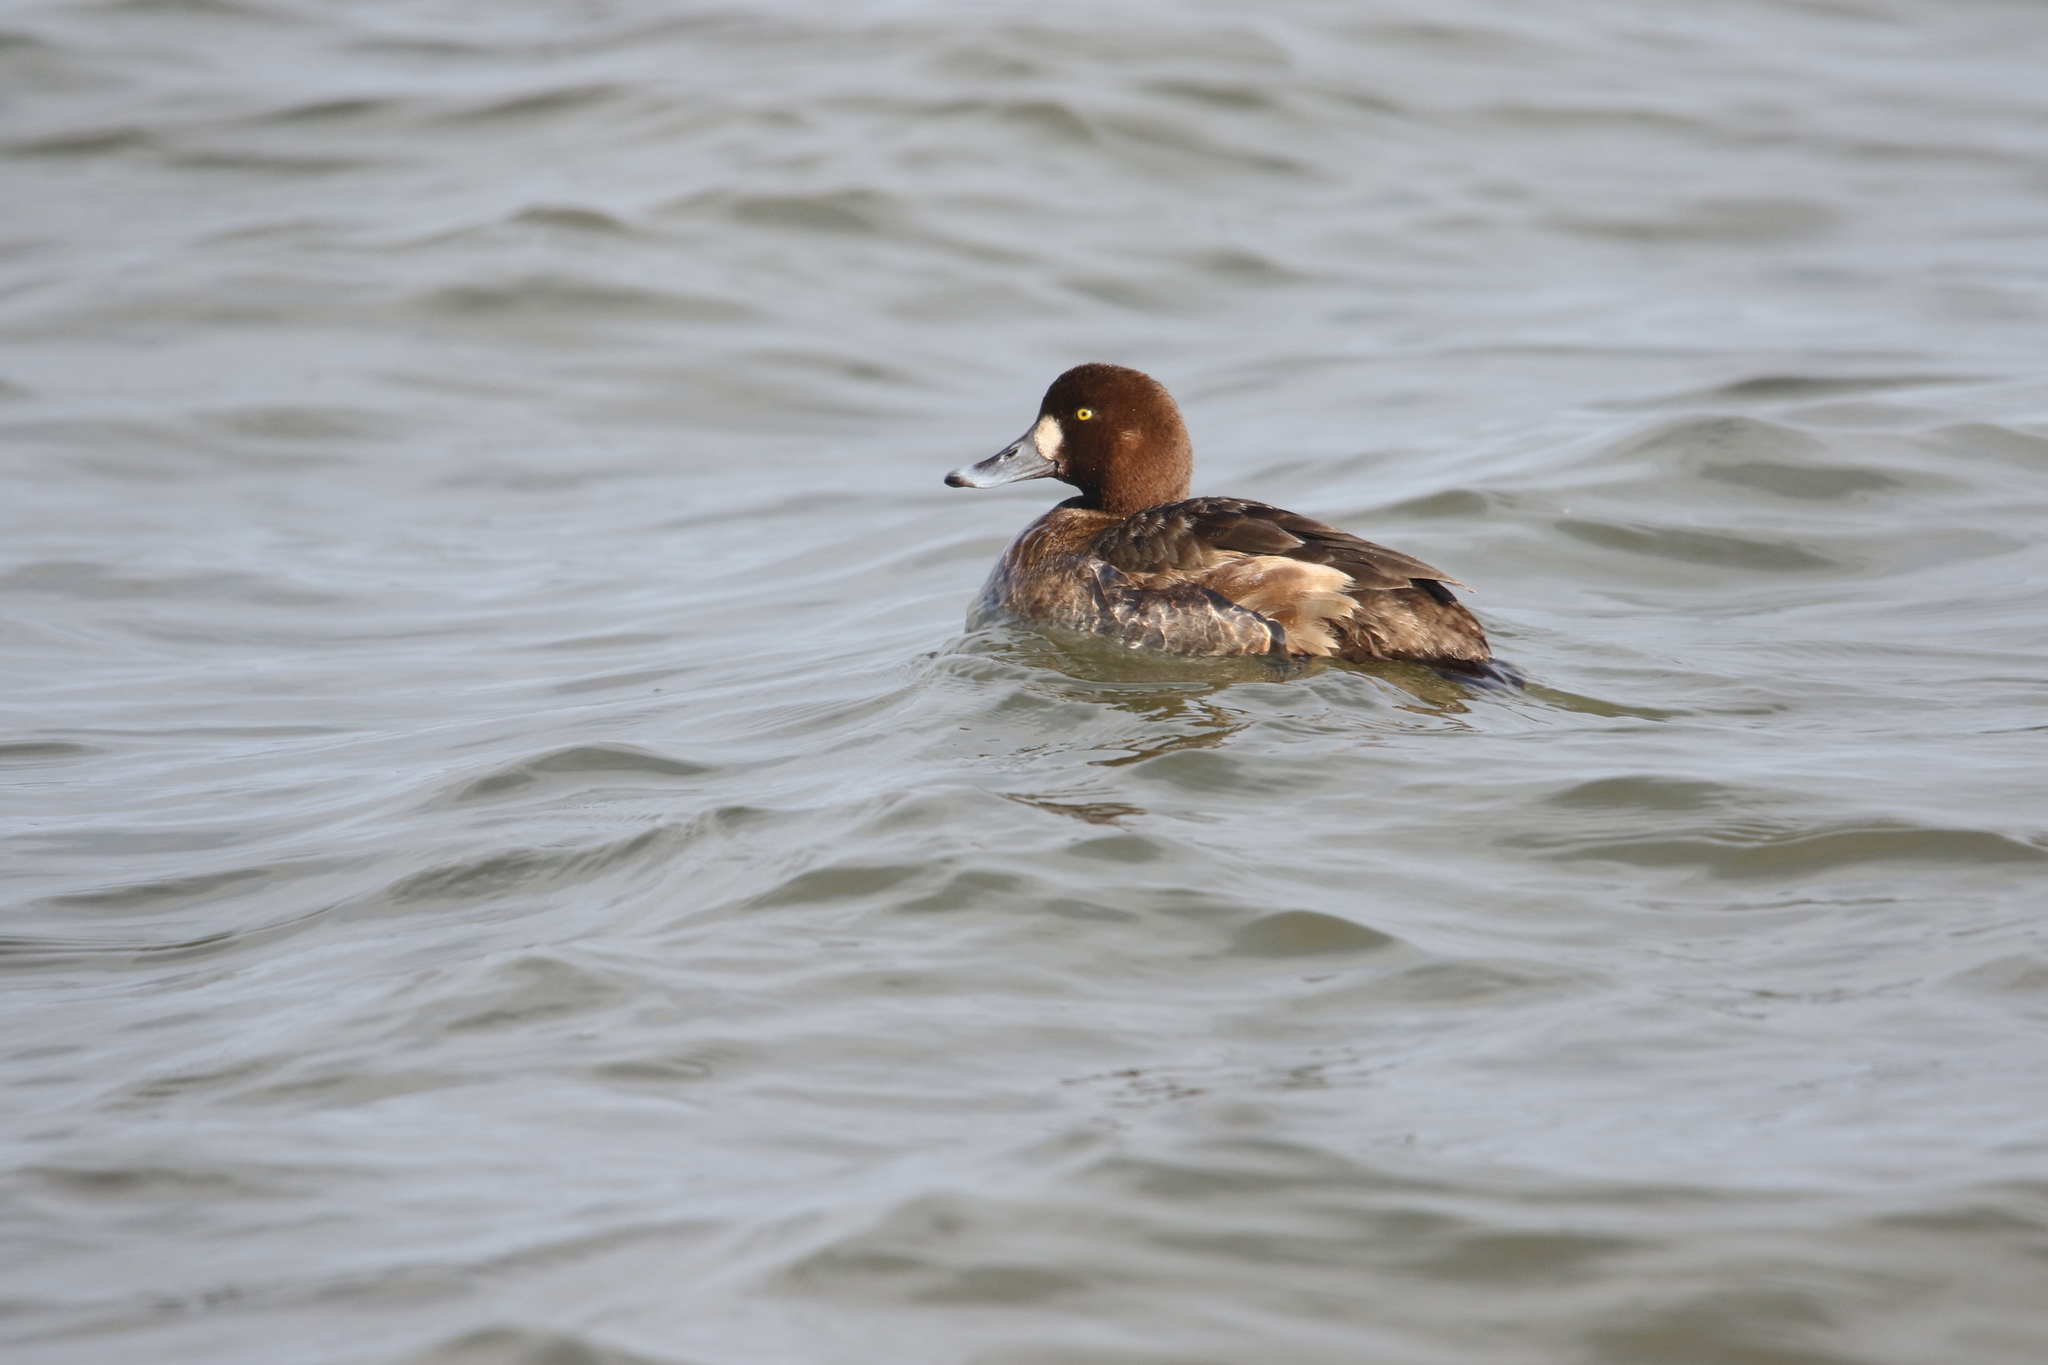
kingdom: Animalia
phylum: Chordata
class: Aves
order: Anseriformes
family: Anatidae
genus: Aythya
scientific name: Aythya marila
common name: Greater scaup
